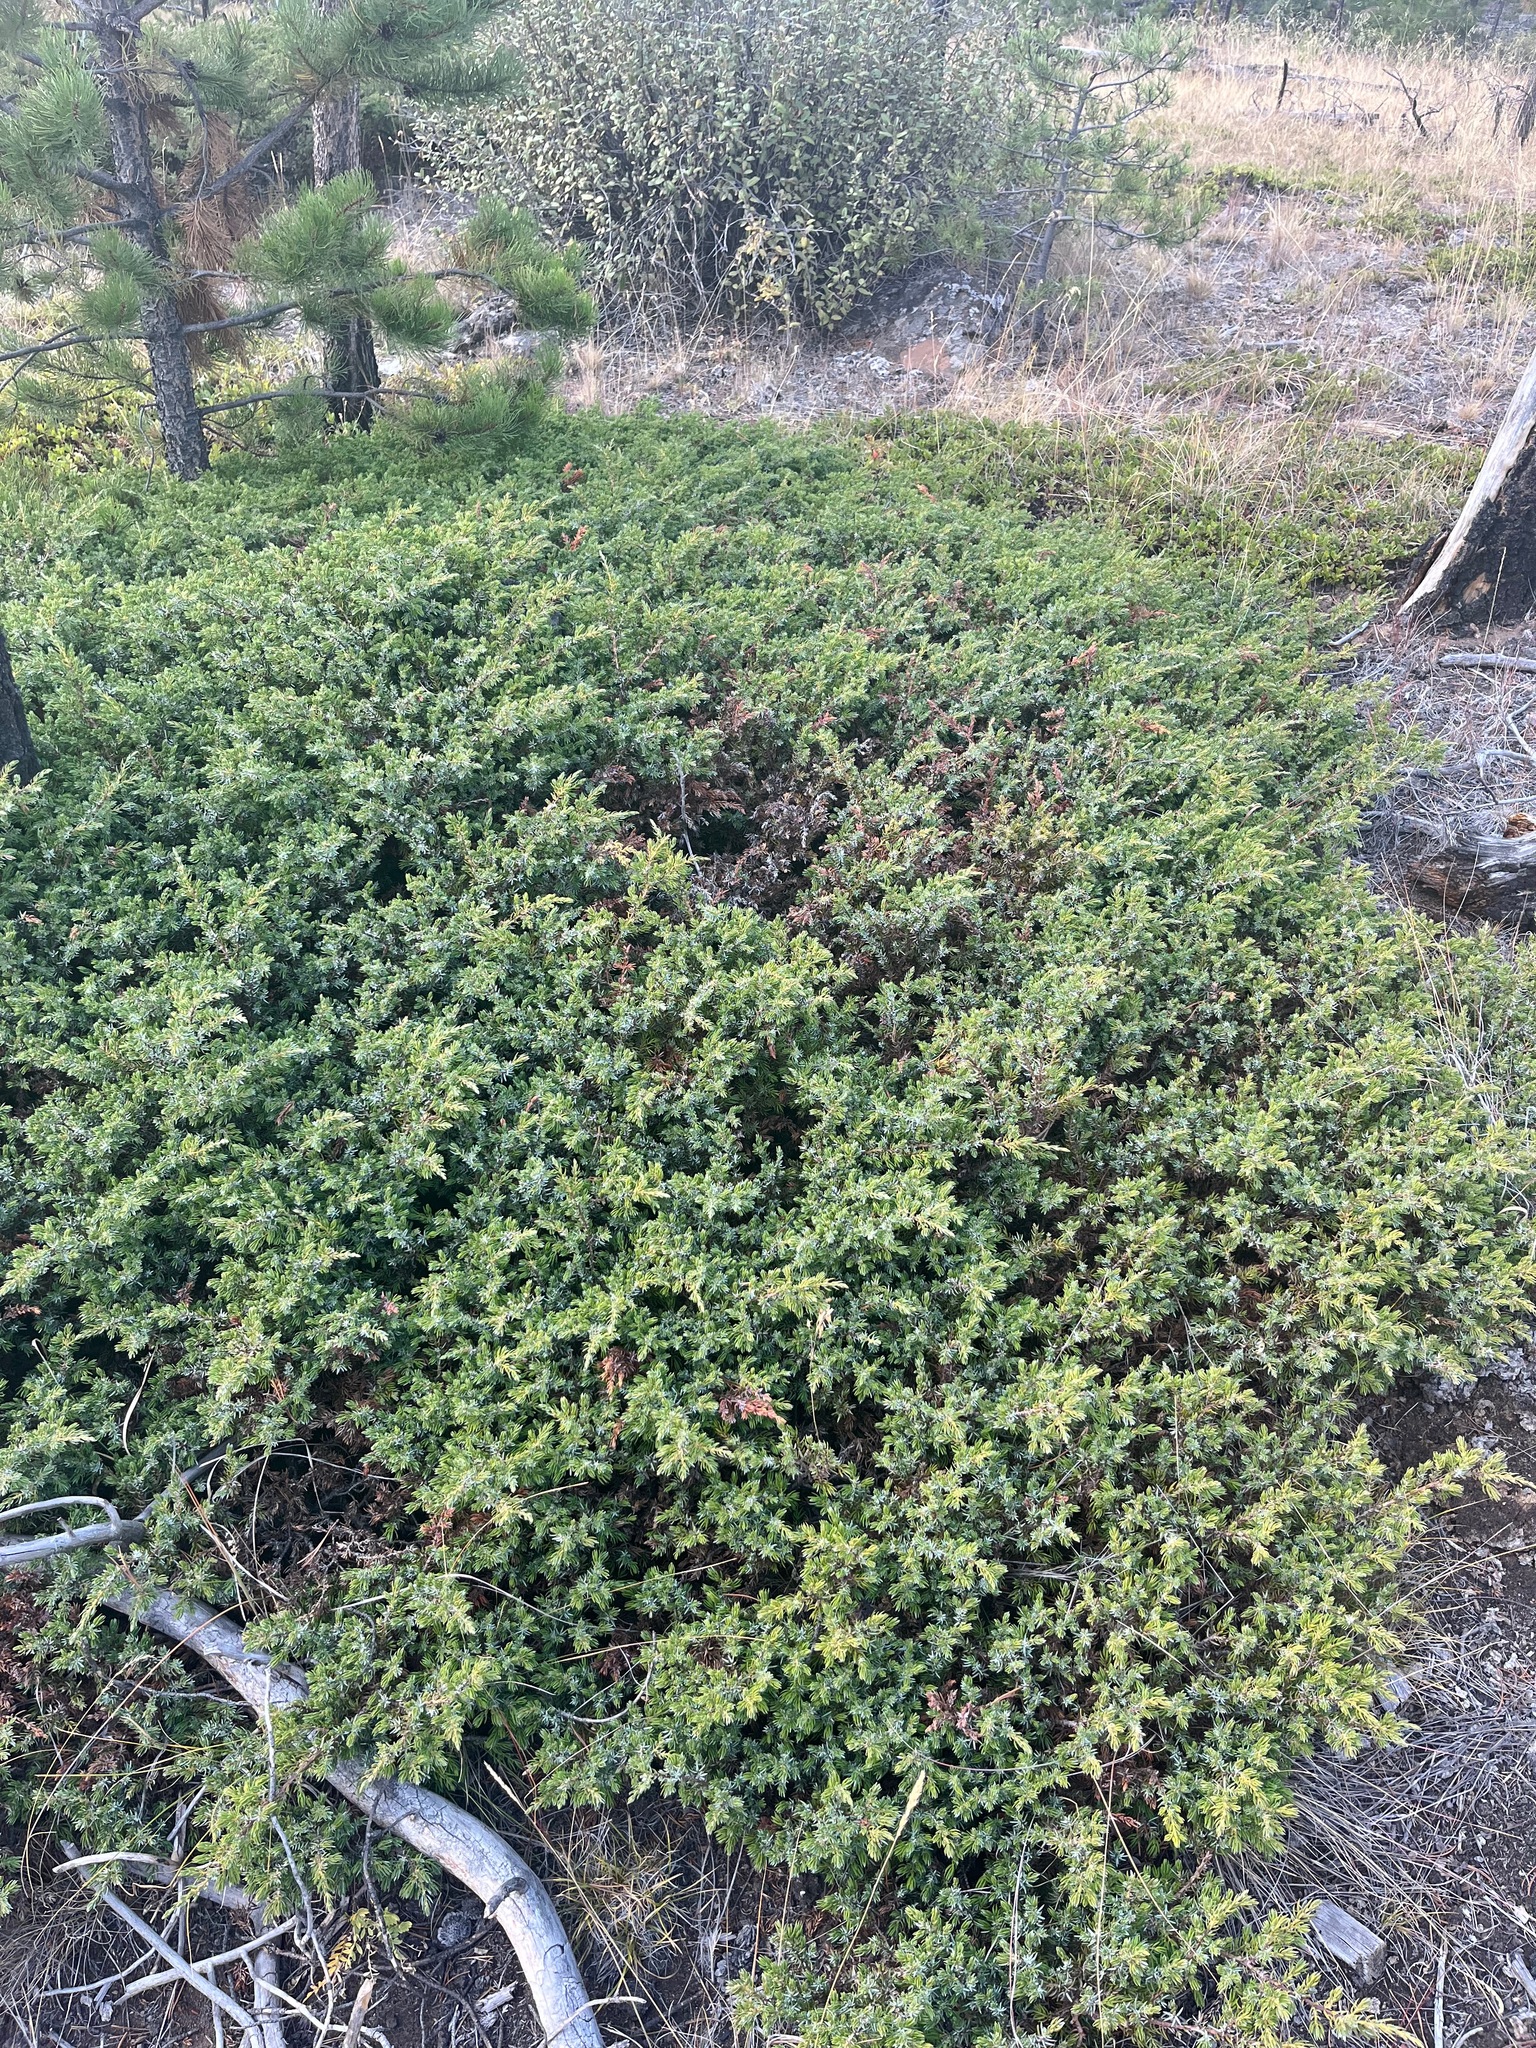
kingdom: Plantae
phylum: Tracheophyta
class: Pinopsida
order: Pinales
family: Cupressaceae
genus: Juniperus
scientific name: Juniperus communis
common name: Common juniper
